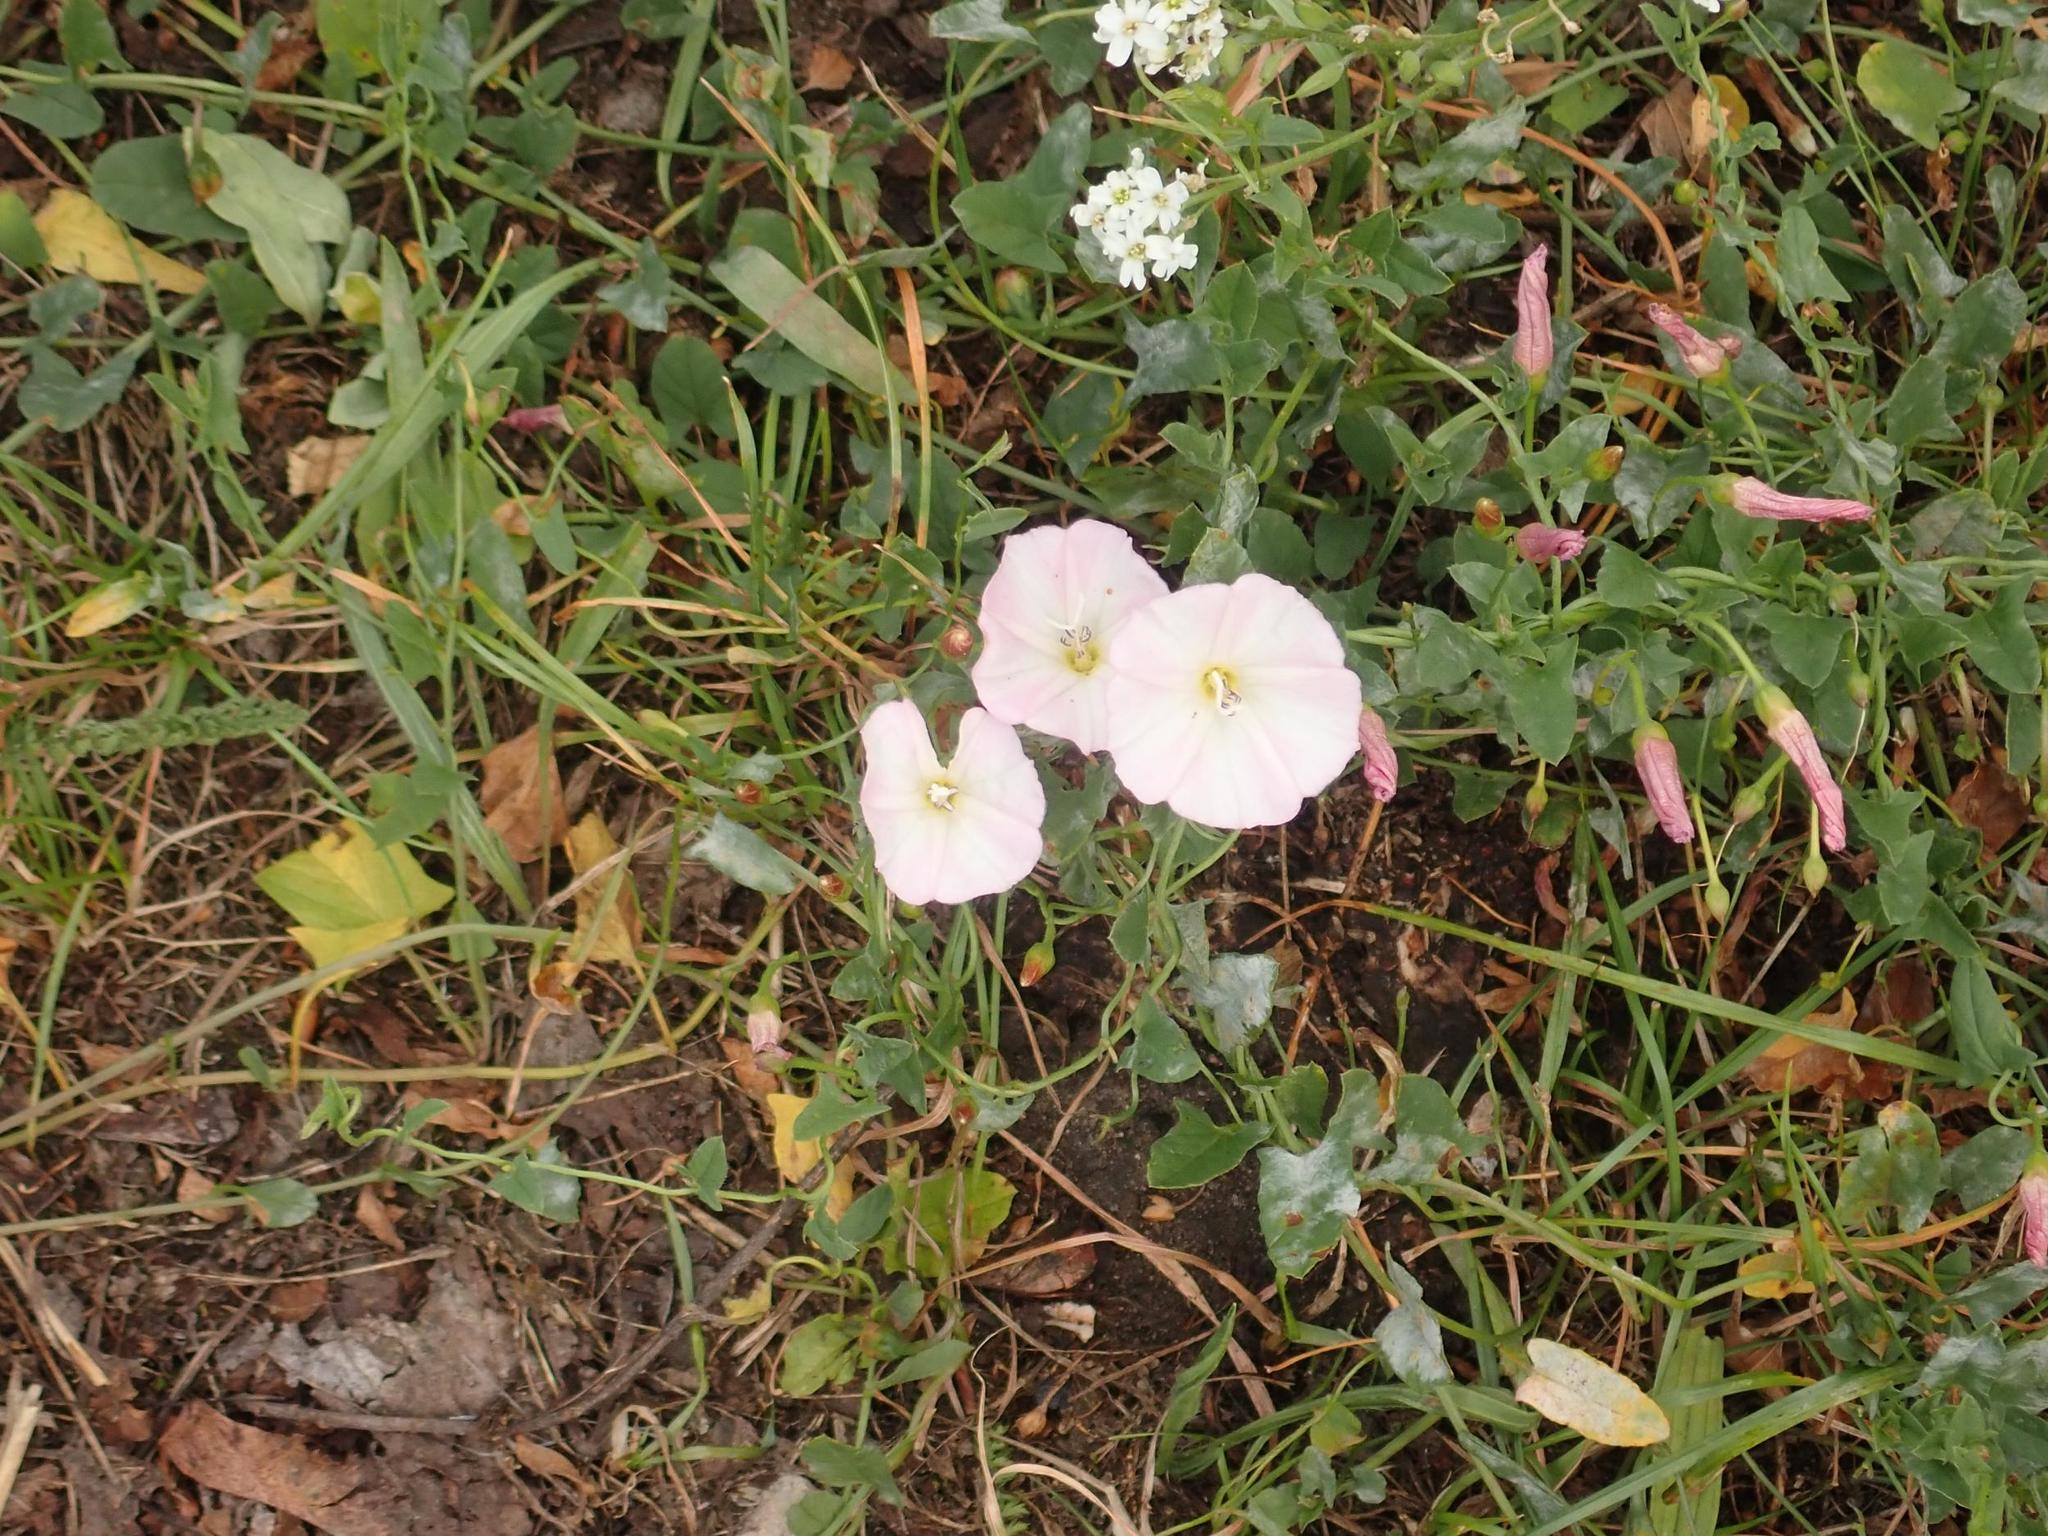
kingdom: Plantae
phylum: Tracheophyta
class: Magnoliopsida
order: Solanales
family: Convolvulaceae
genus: Convolvulus
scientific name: Convolvulus arvensis
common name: Field bindweed
